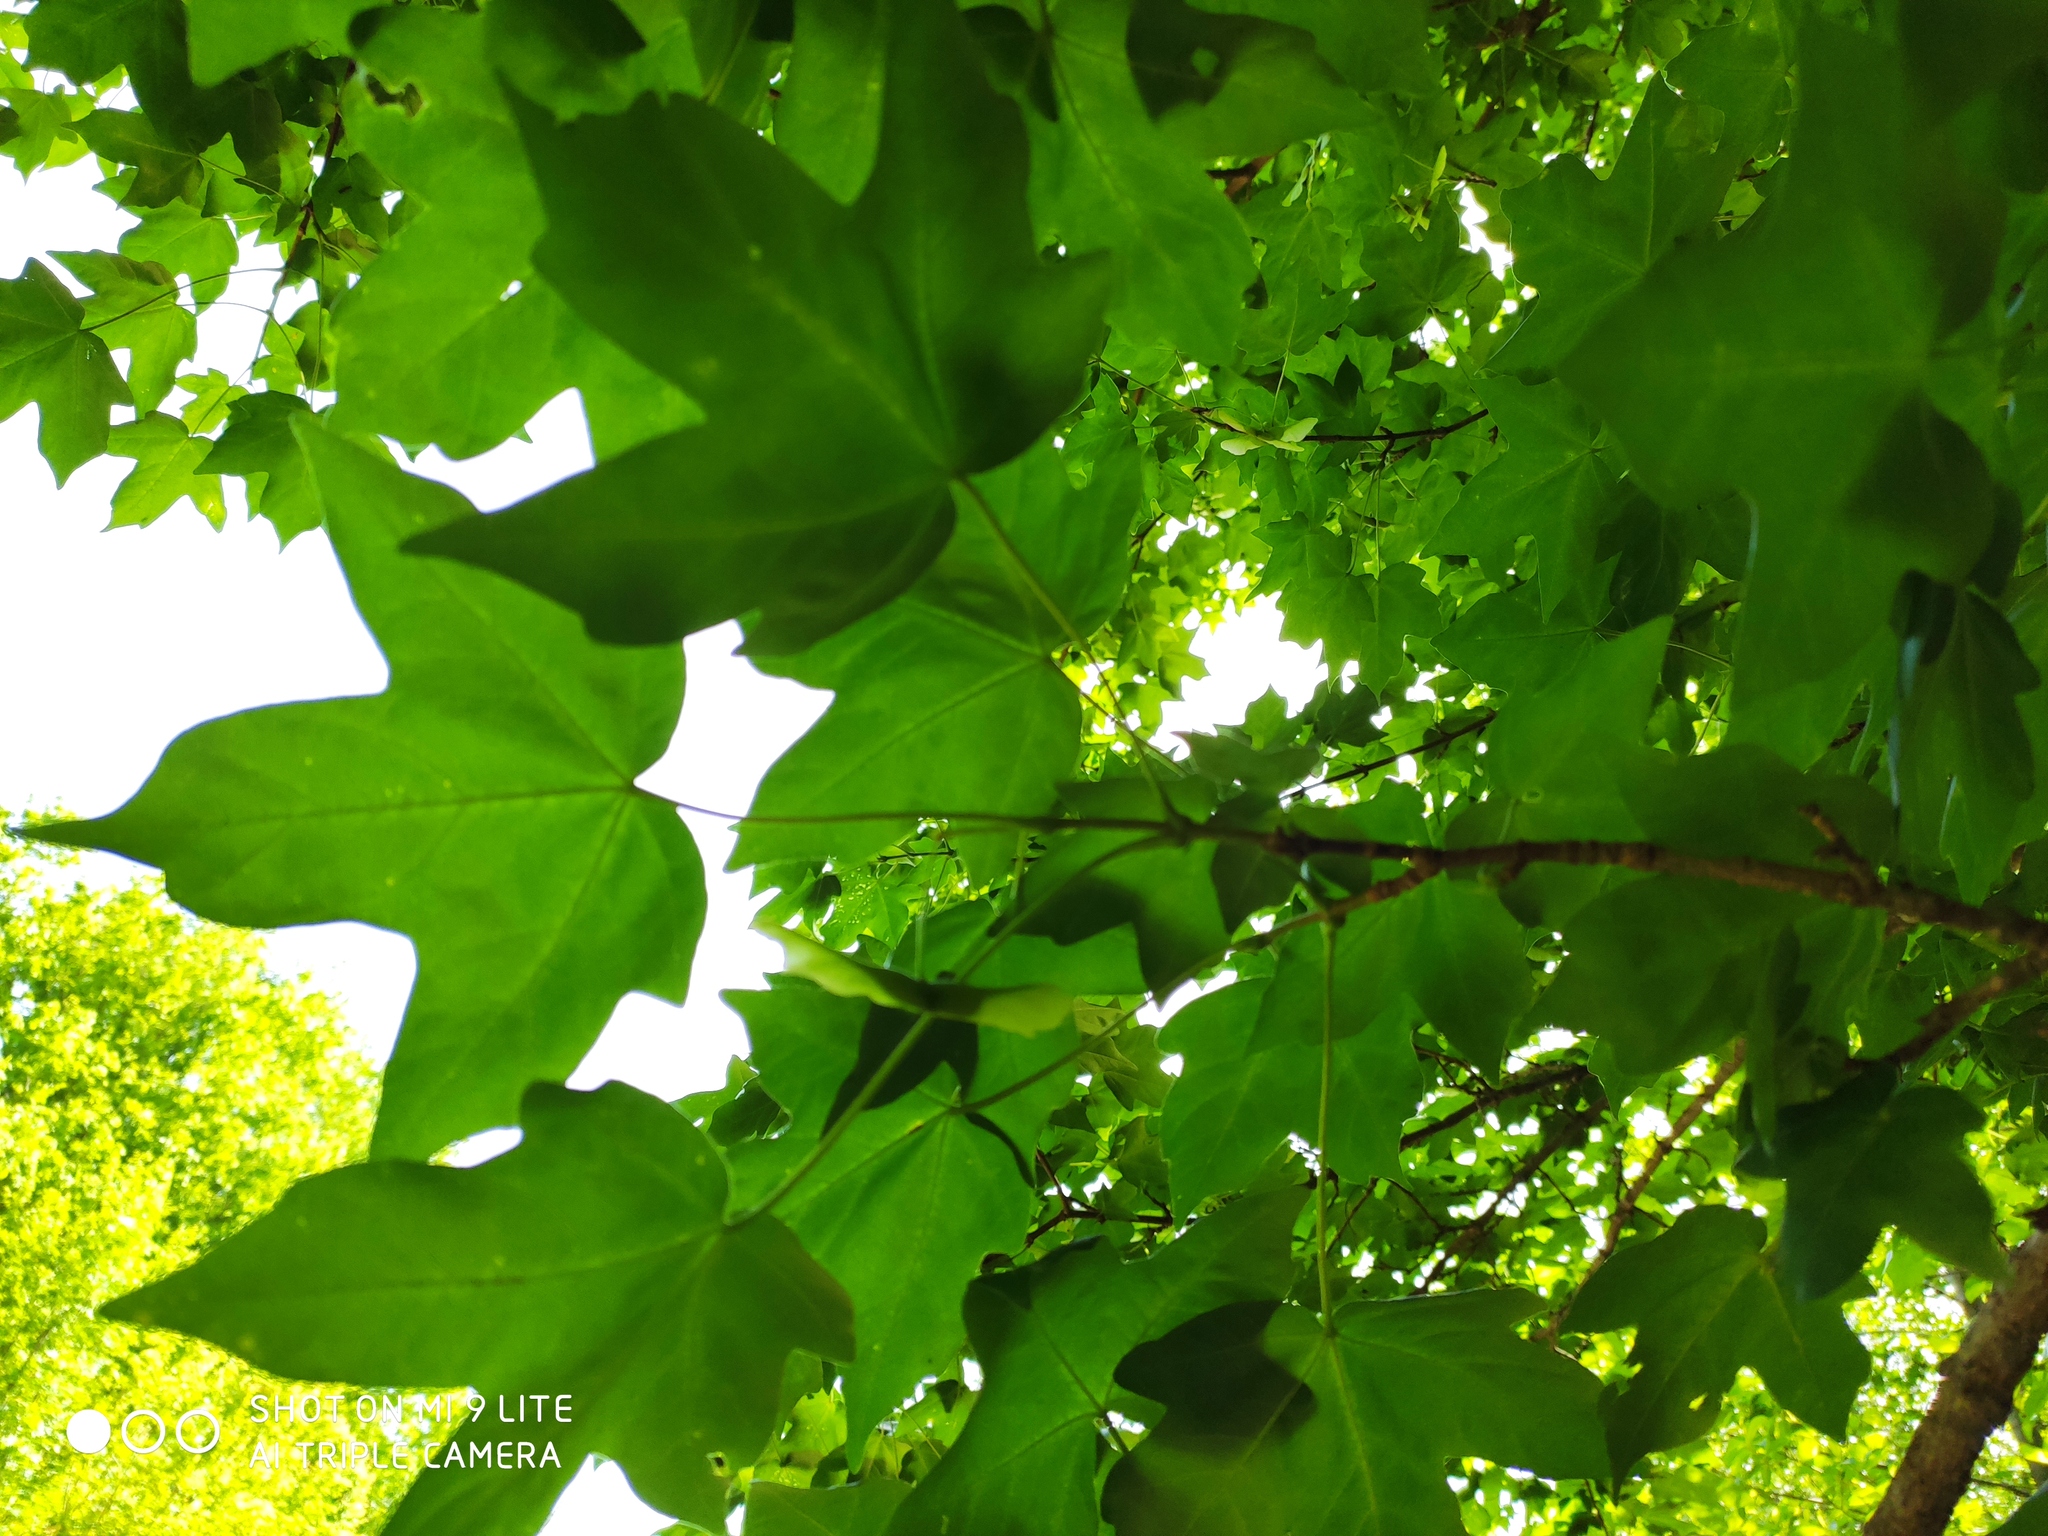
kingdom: Plantae
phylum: Tracheophyta
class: Magnoliopsida
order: Sapindales
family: Sapindaceae
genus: Acer
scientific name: Acer cappadocicum
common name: Cappadocian maple
